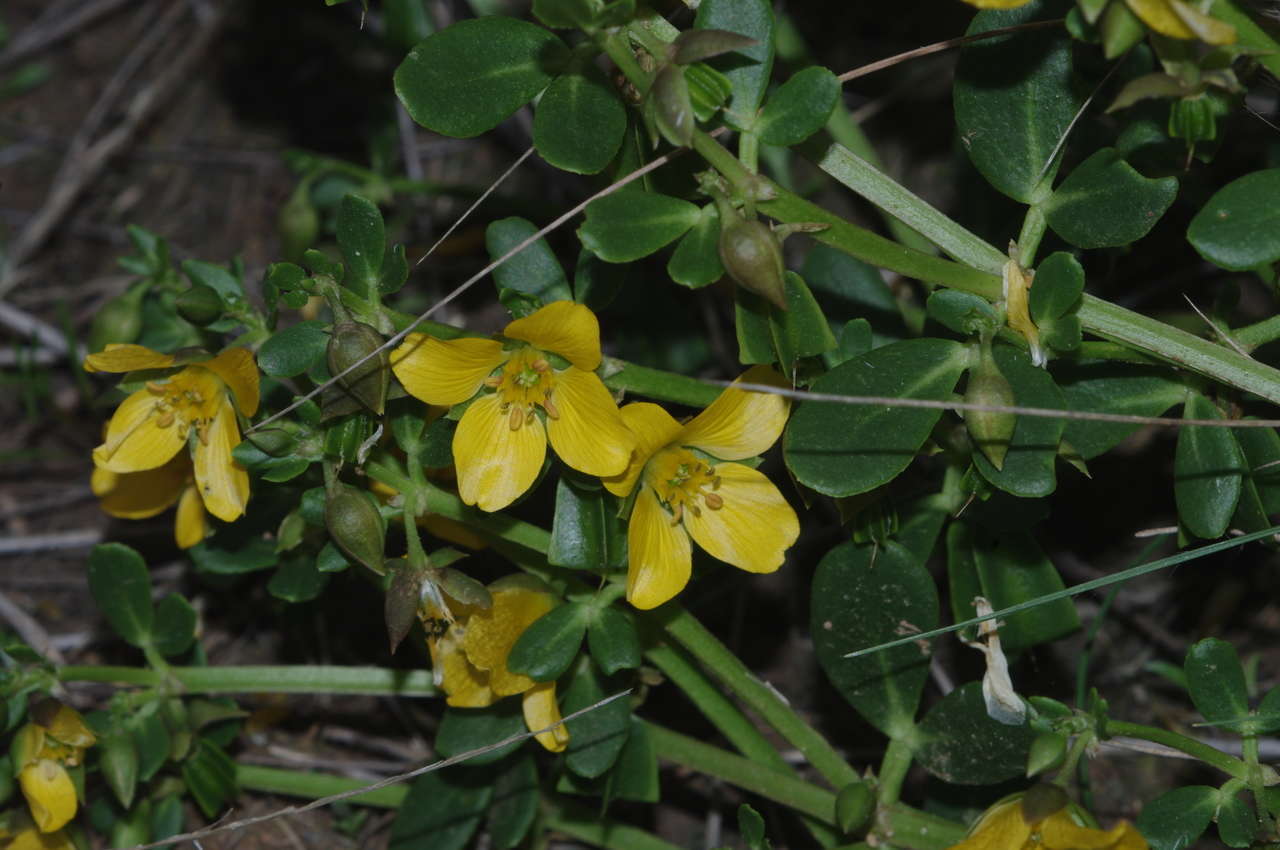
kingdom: Plantae
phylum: Tracheophyta
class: Magnoliopsida
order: Zygophyllales
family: Zygophyllaceae
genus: Roepera
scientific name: Roepera glauca
